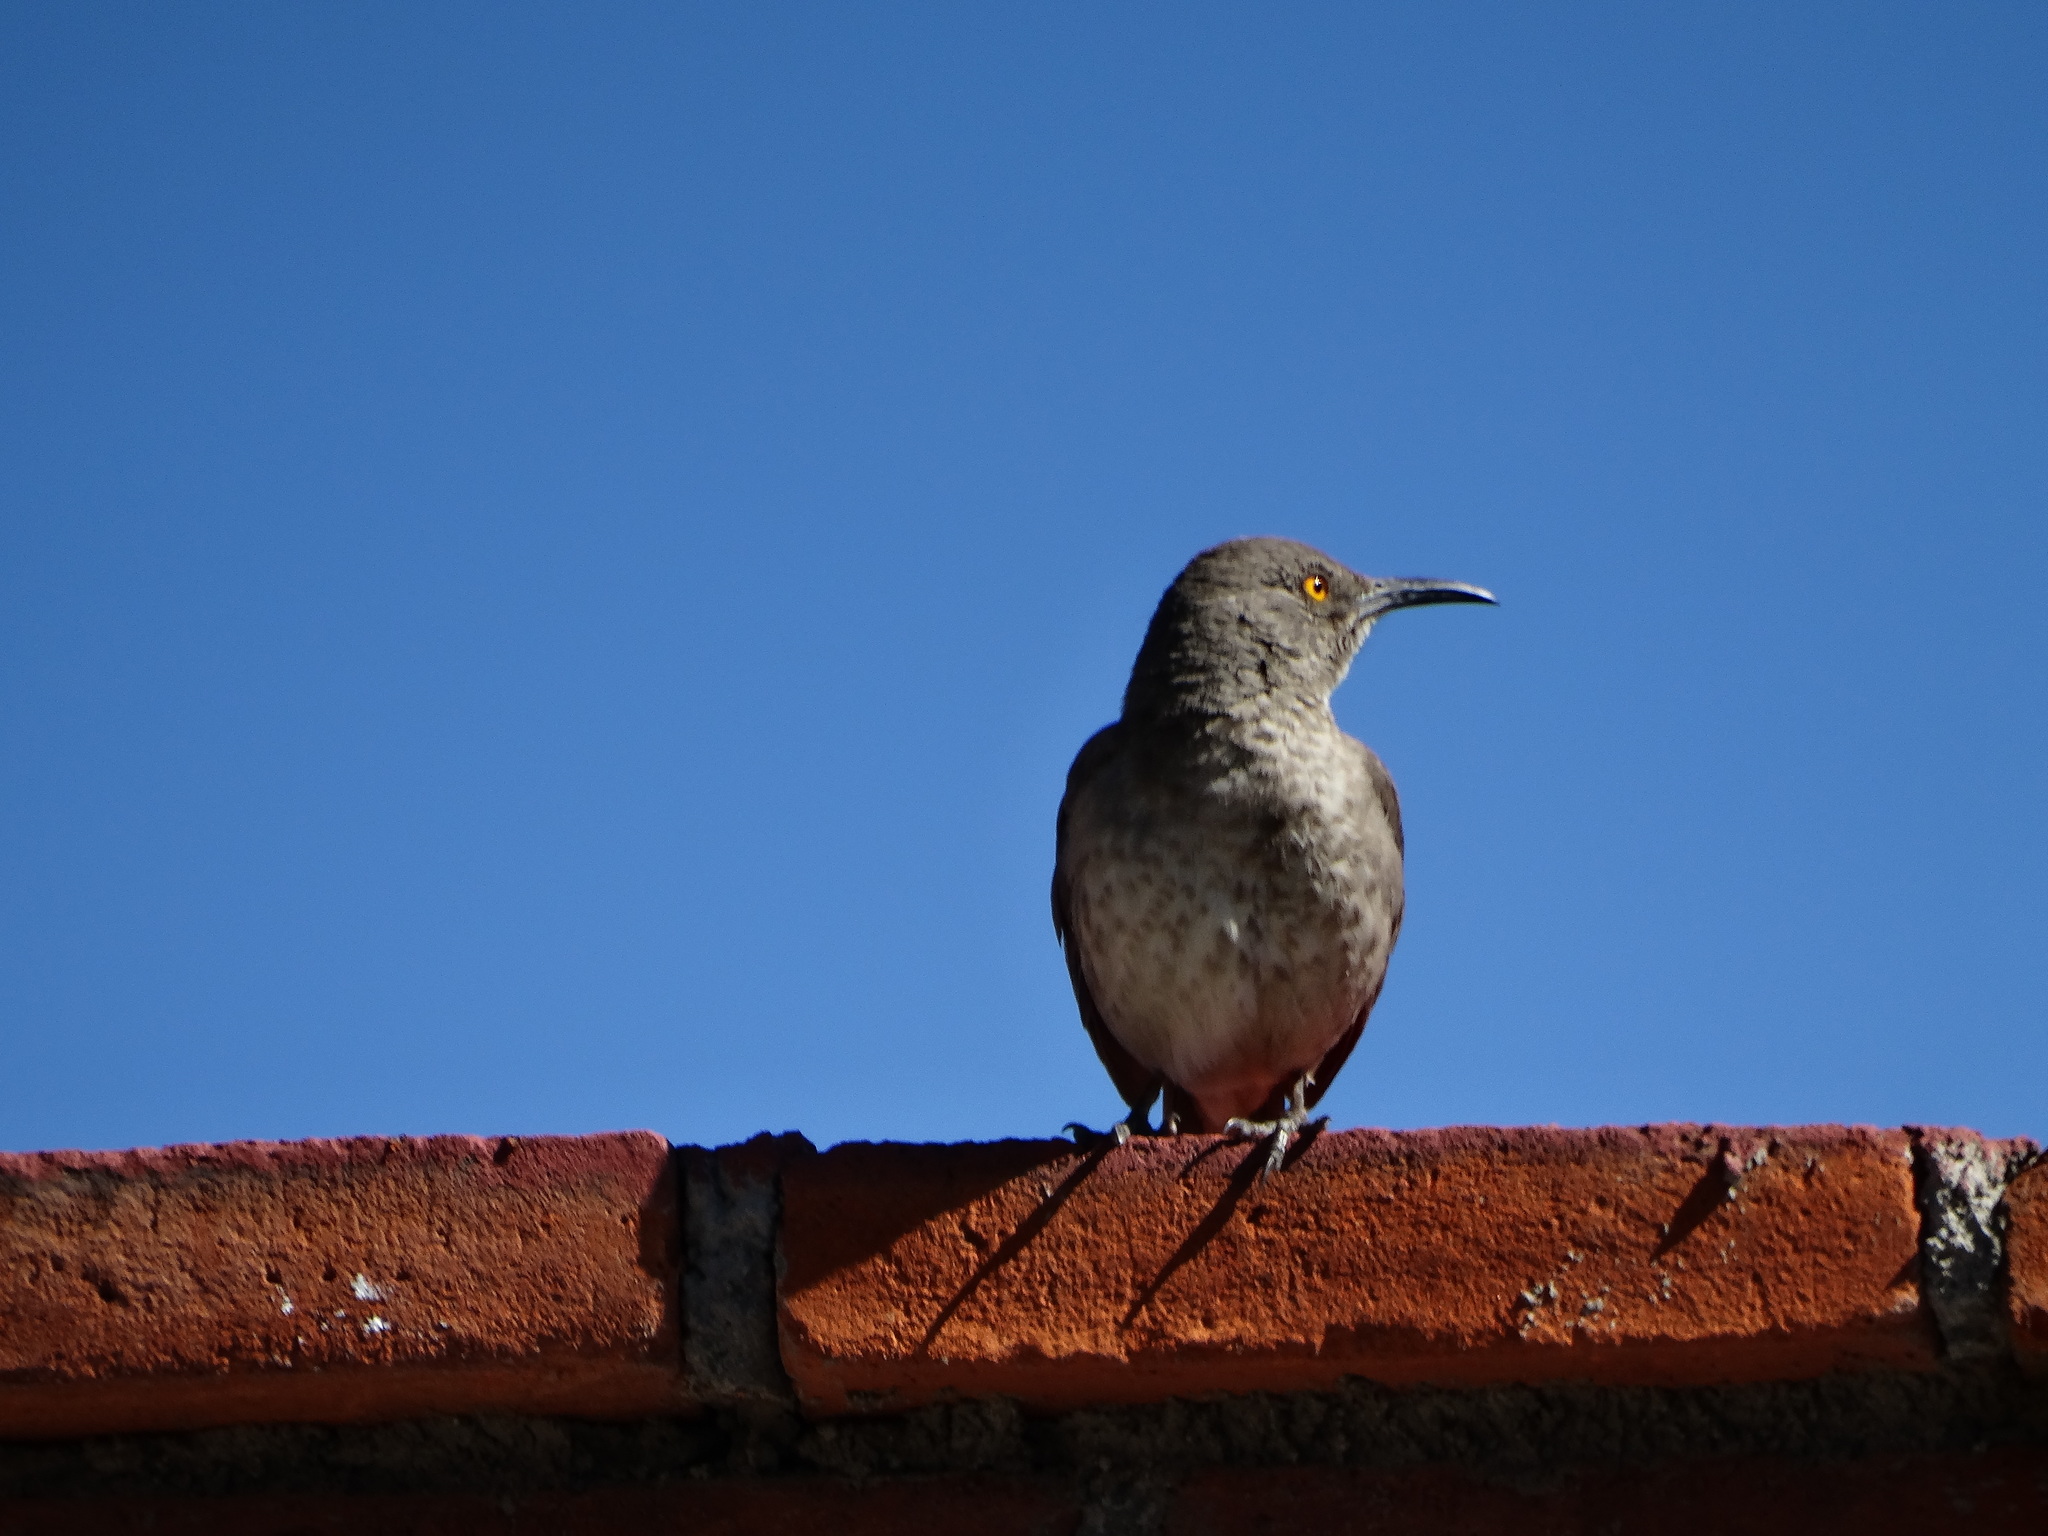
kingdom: Animalia
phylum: Chordata
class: Aves
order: Passeriformes
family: Mimidae
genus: Toxostoma
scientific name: Toxostoma curvirostre
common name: Curve-billed thrasher
